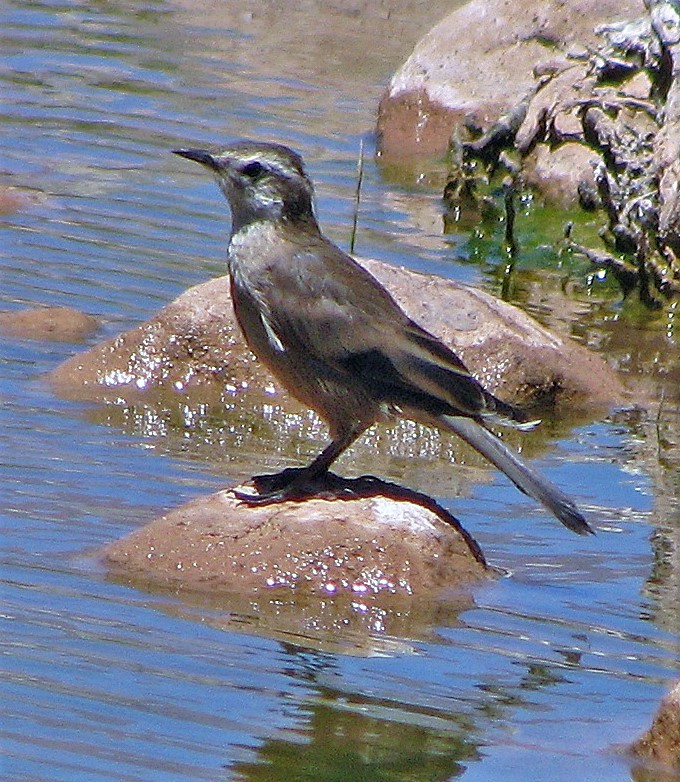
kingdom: Animalia
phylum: Chordata
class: Aves
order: Passeriformes
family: Furnariidae
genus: Cinclodes
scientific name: Cinclodes oustaleti
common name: Grey-flanked cinclodes
